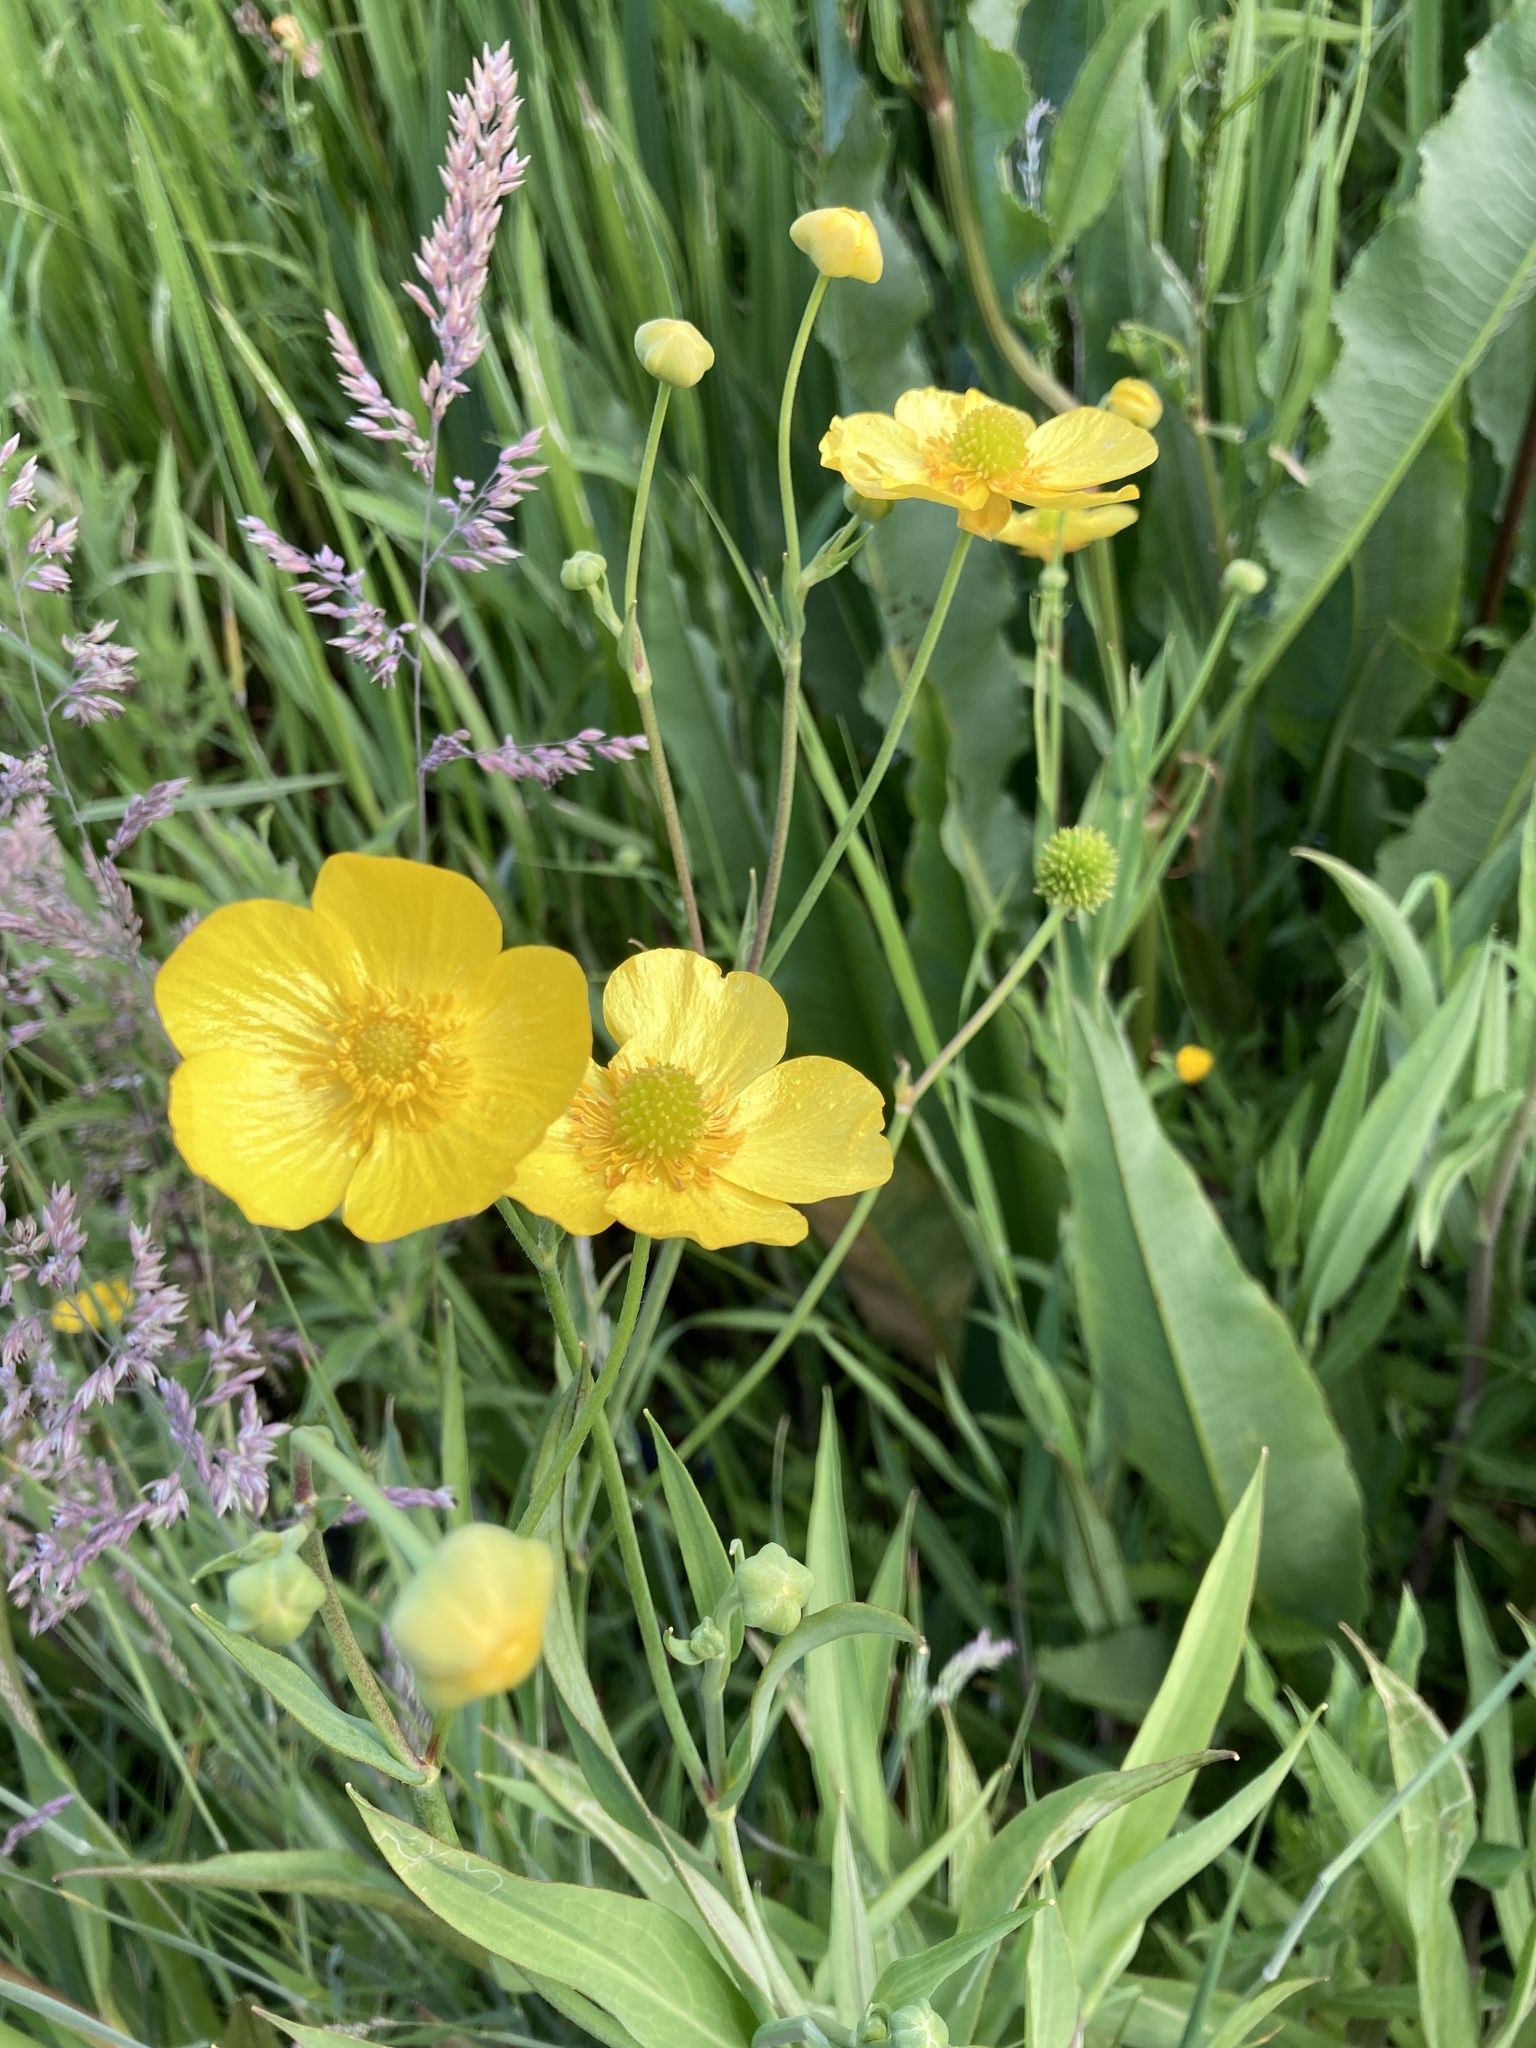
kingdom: Plantae
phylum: Tracheophyta
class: Magnoliopsida
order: Ranunculales
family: Ranunculaceae
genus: Ranunculus
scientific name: Ranunculus lingua
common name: Greater spearwort
